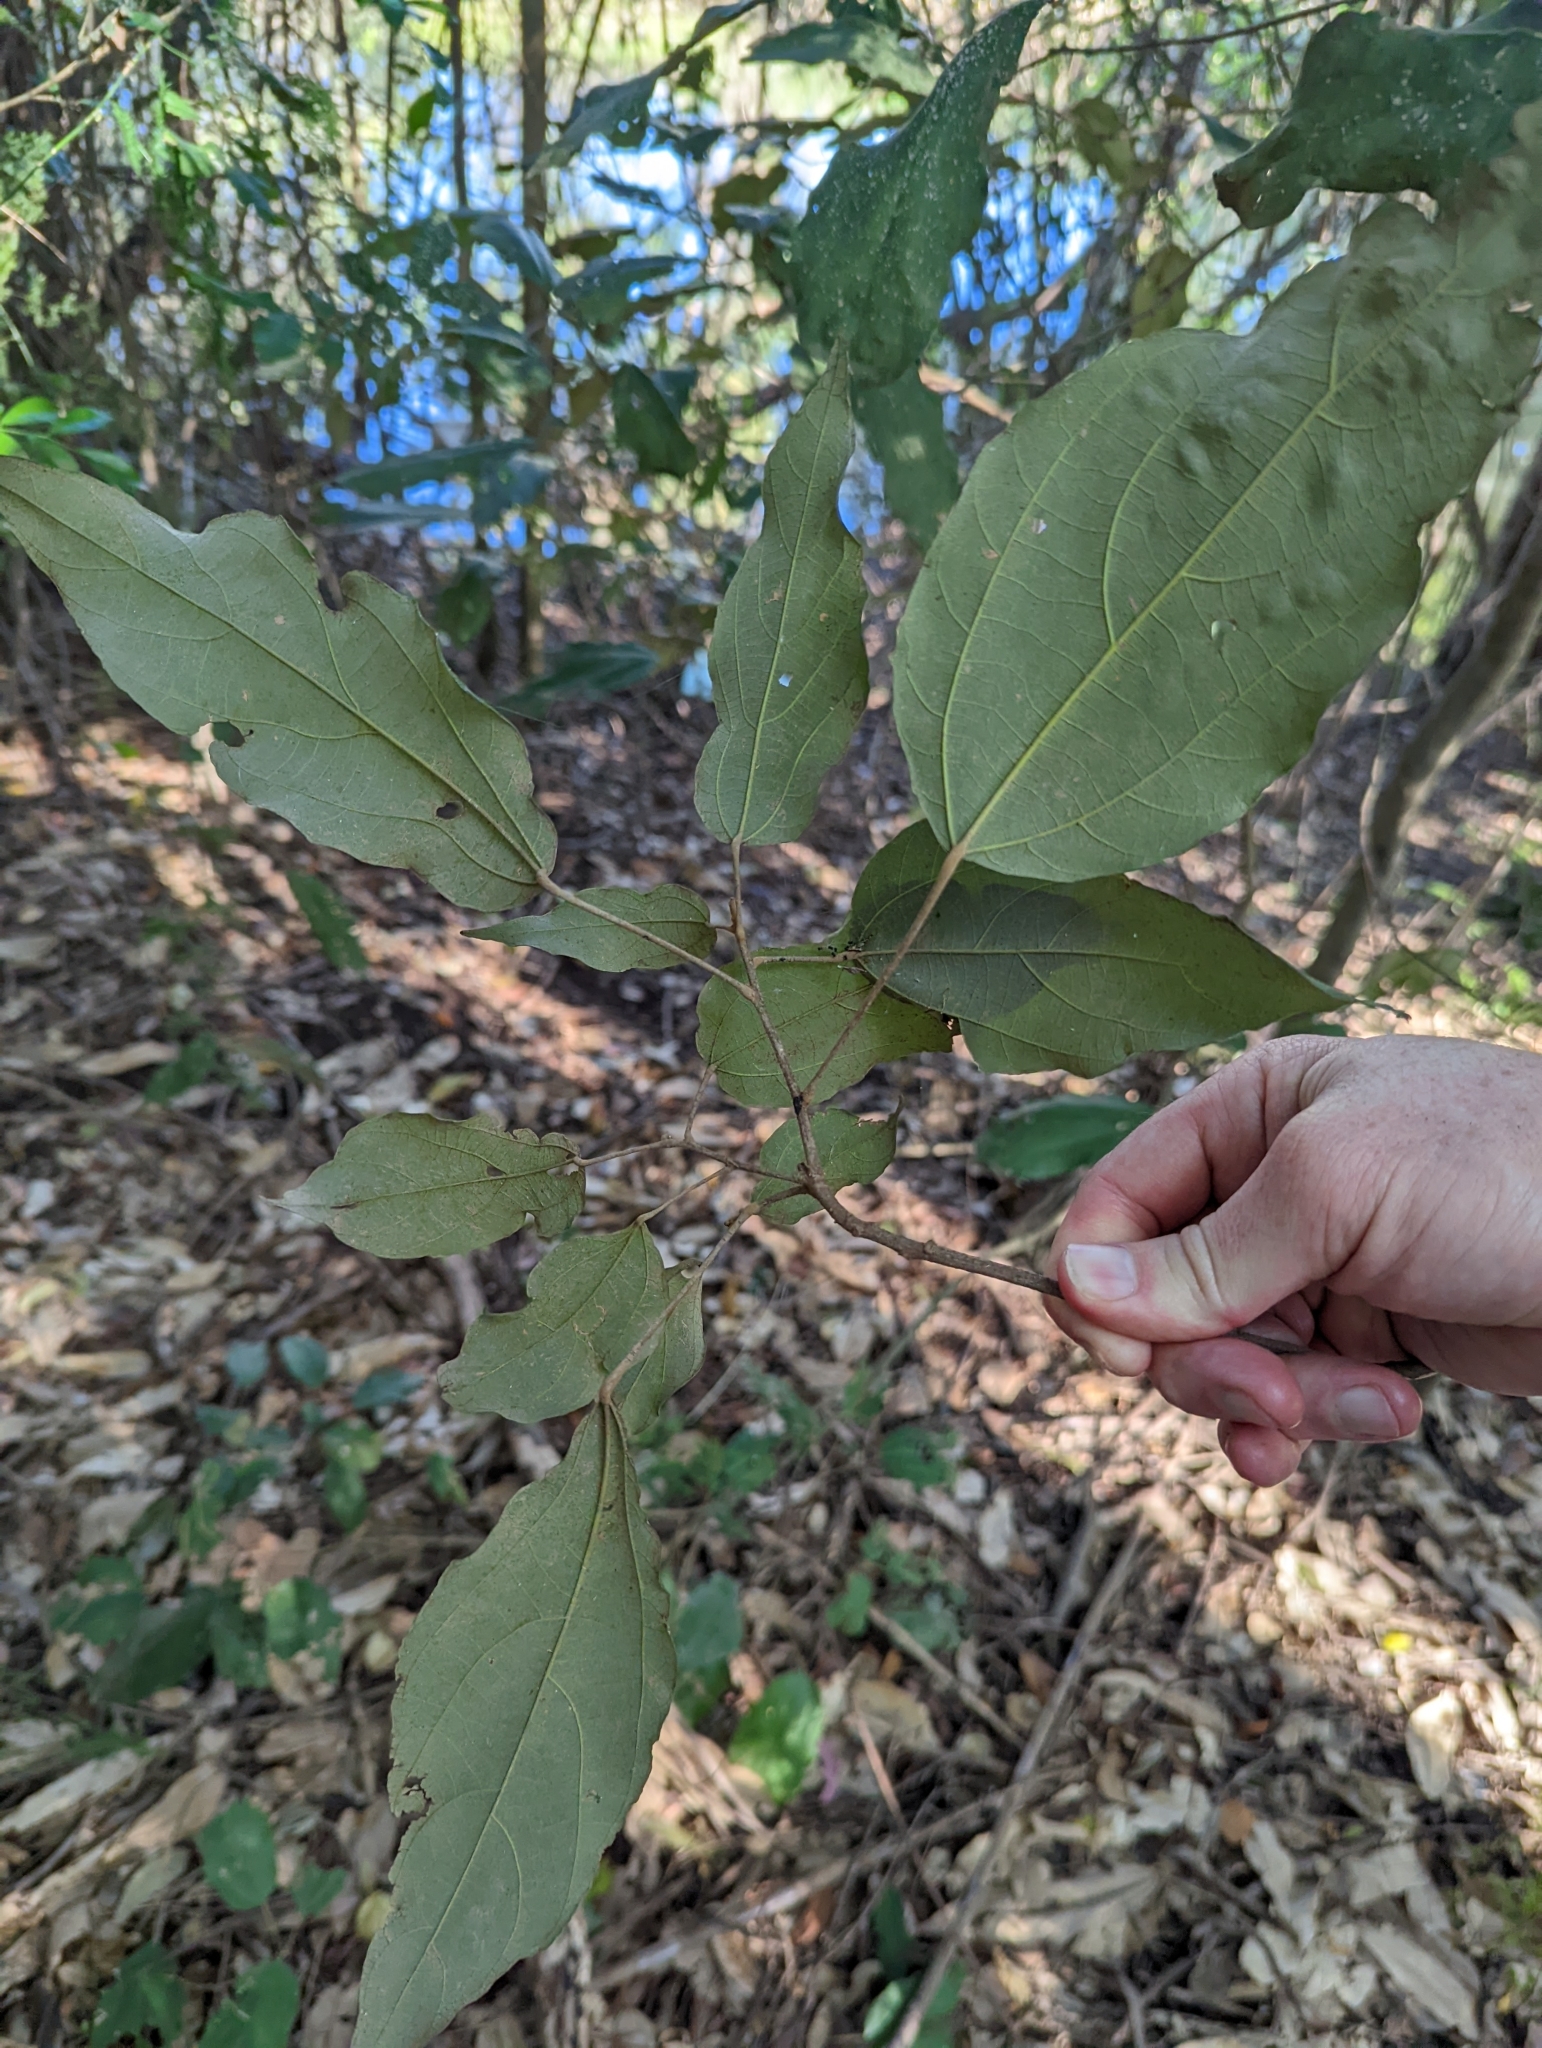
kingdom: Plantae
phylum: Tracheophyta
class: Magnoliopsida
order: Malpighiales
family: Euphorbiaceae
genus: Mallotus
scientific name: Mallotus philippensis
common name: Kamala tree
